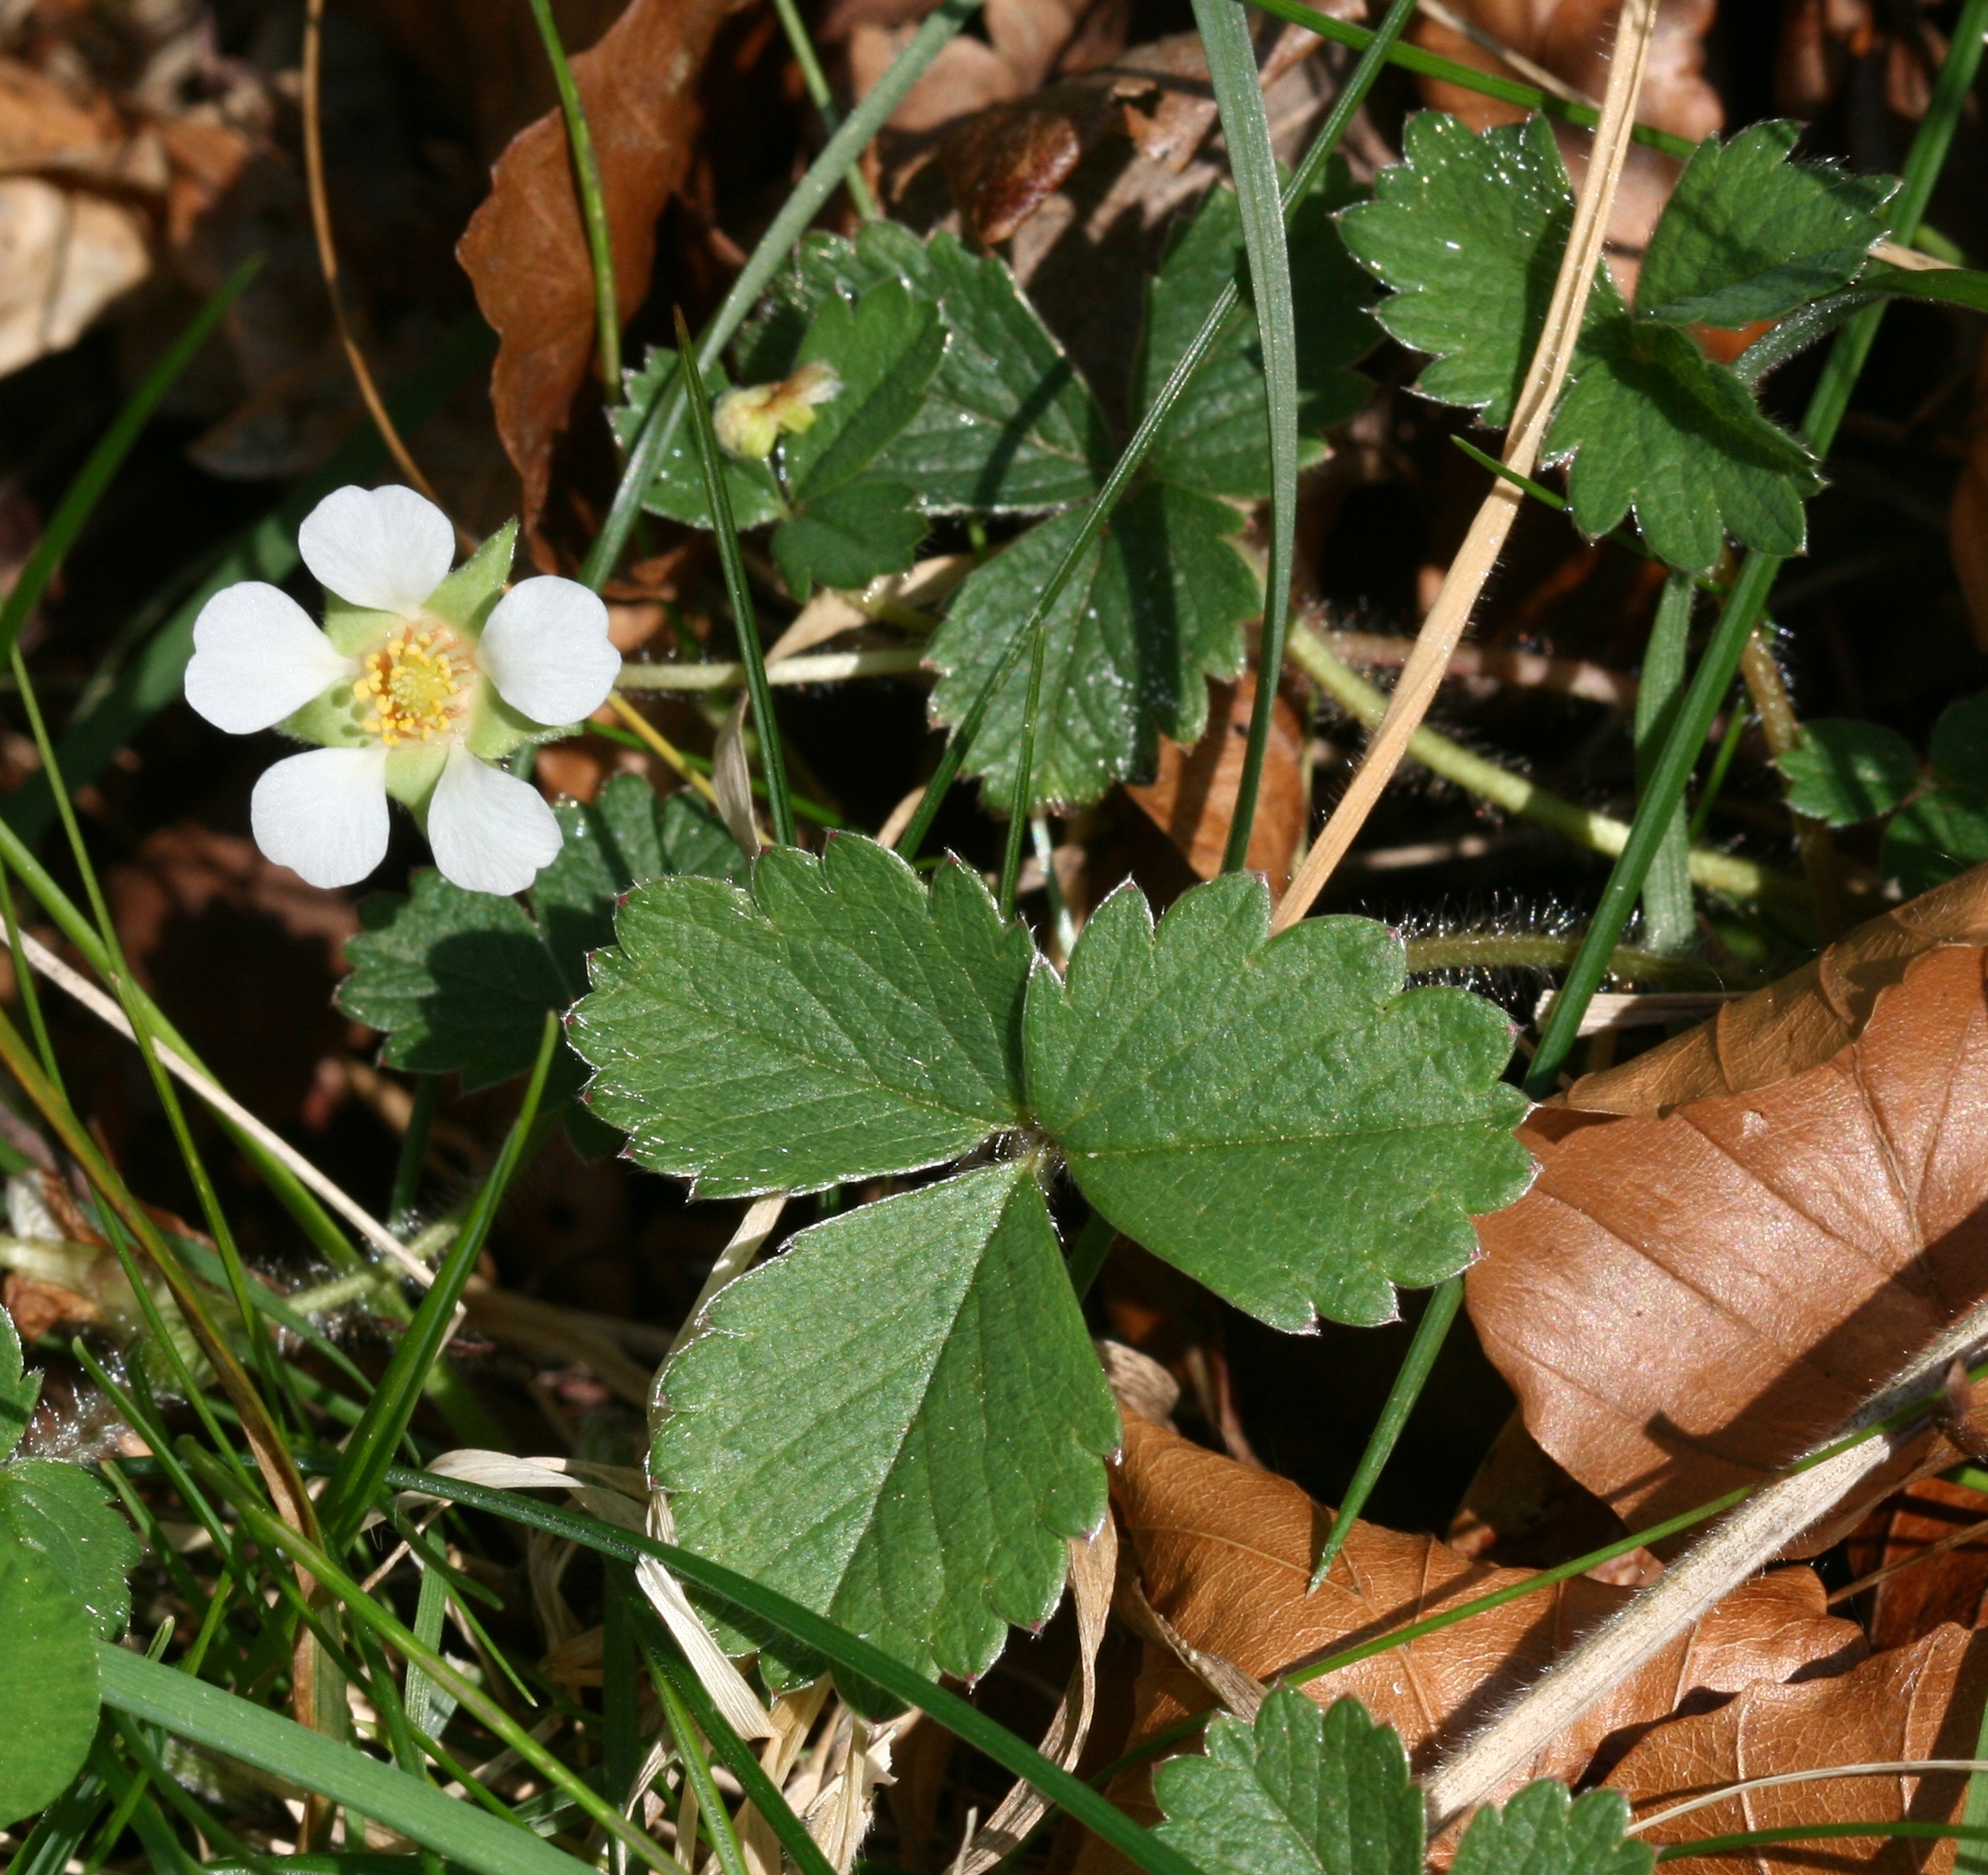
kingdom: Plantae
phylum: Tracheophyta
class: Magnoliopsida
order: Rosales
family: Rosaceae
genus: Potentilla
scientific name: Potentilla sterilis
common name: Barren strawberry
